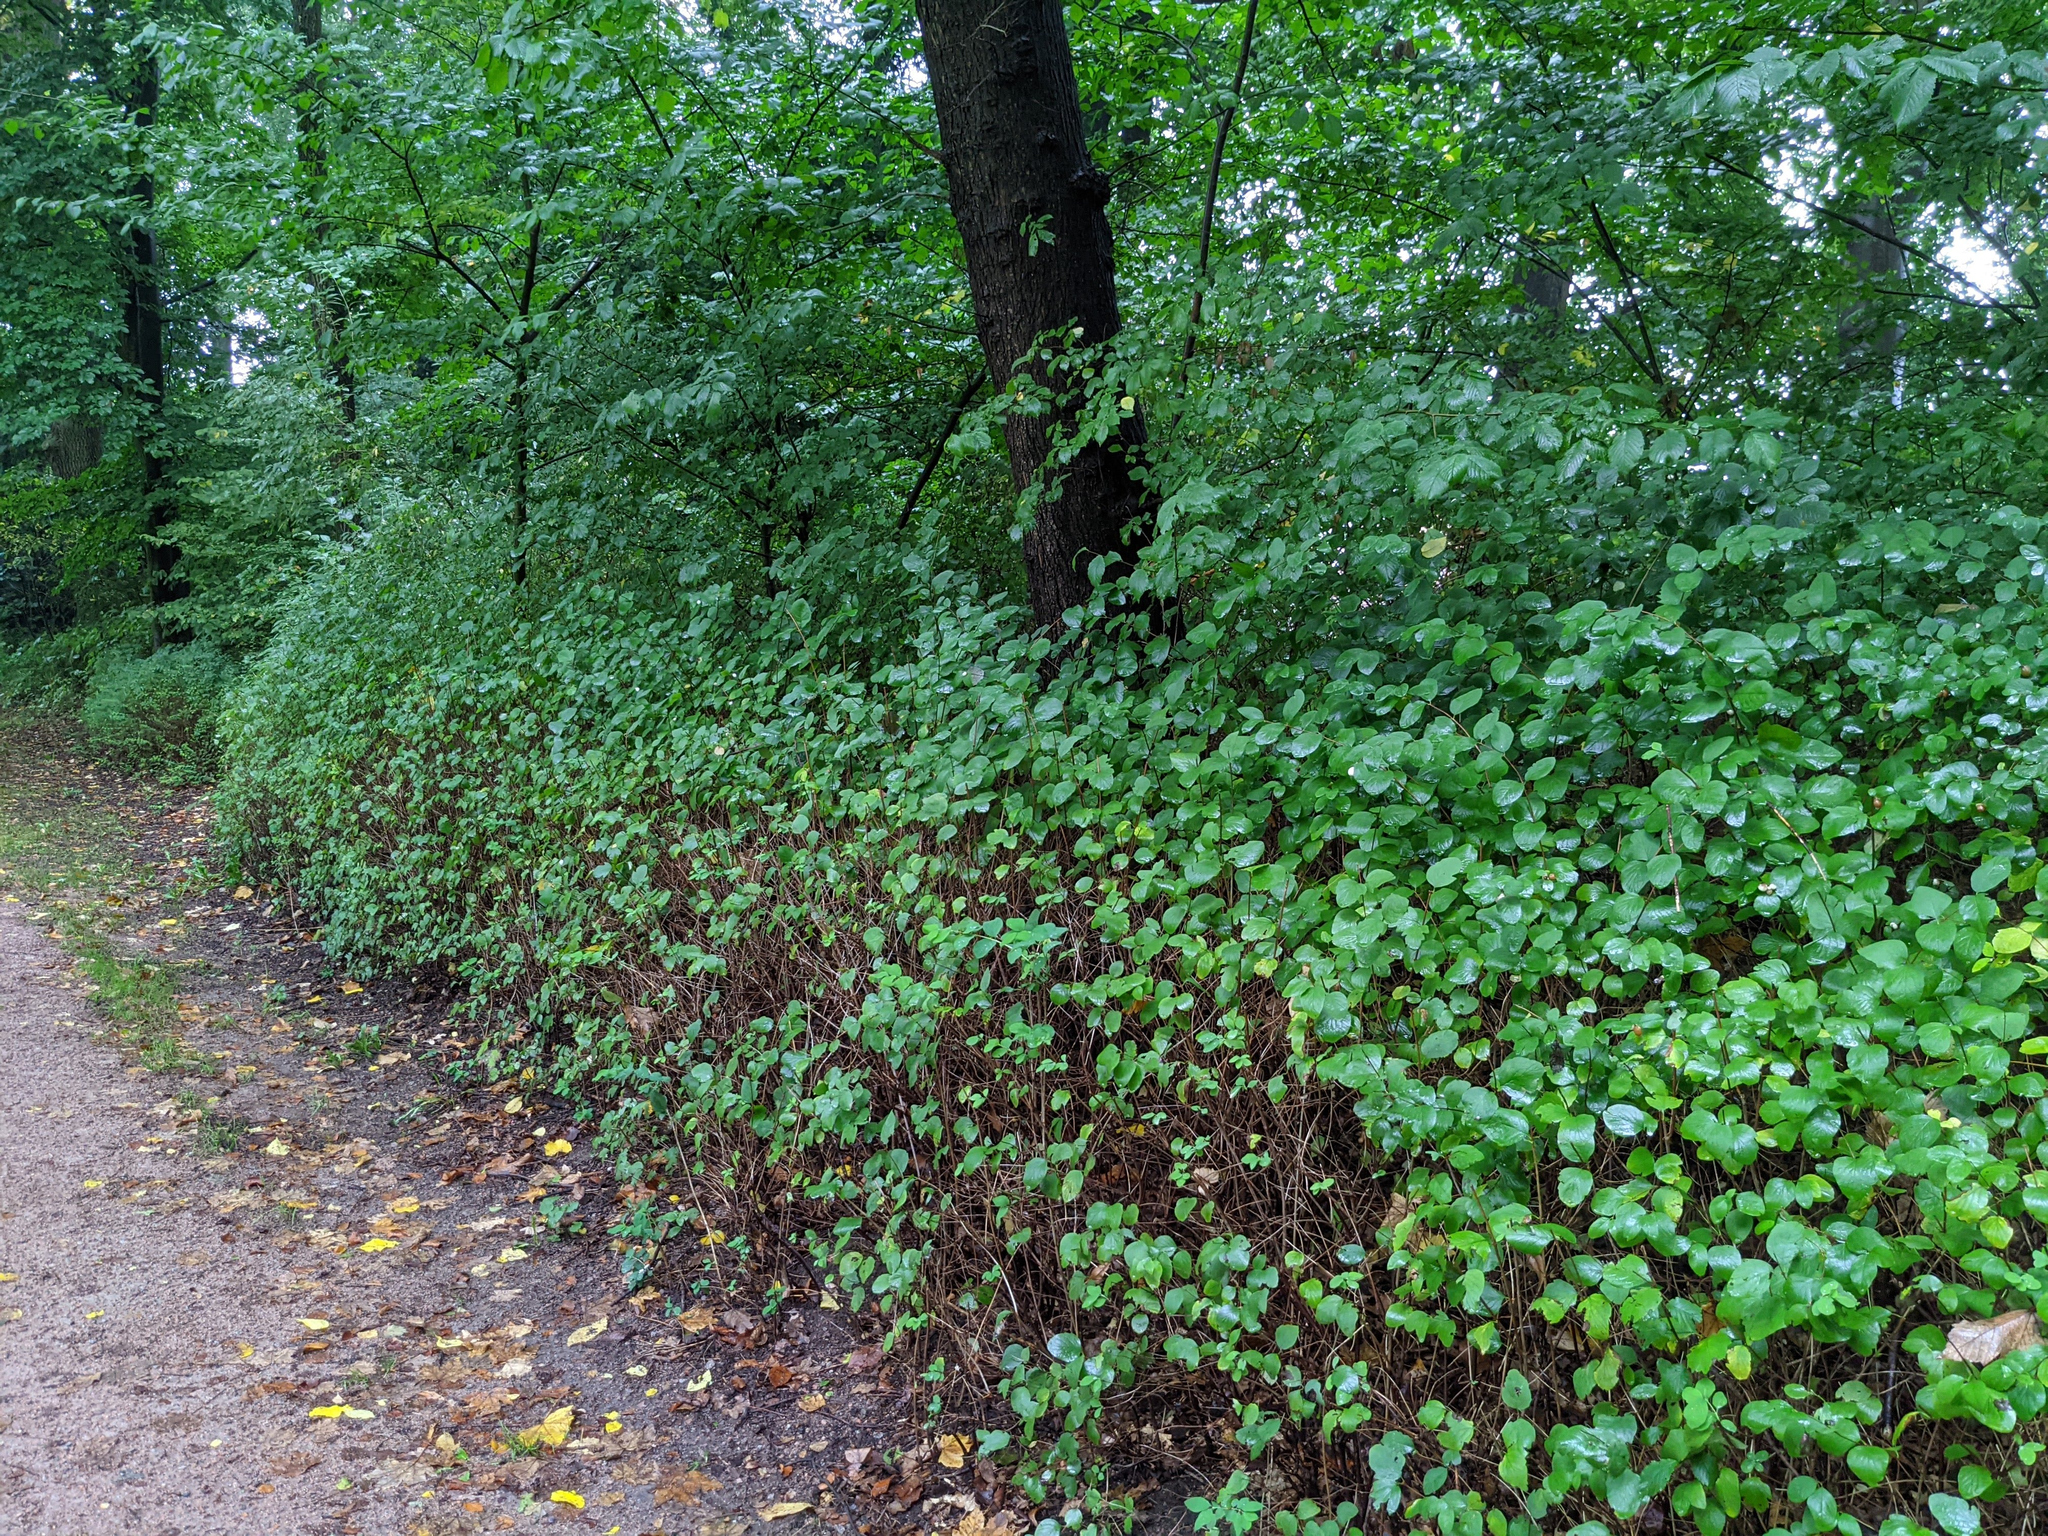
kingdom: Plantae
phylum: Tracheophyta
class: Magnoliopsida
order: Dipsacales
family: Caprifoliaceae
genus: Symphoricarpos
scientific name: Symphoricarpos albus
